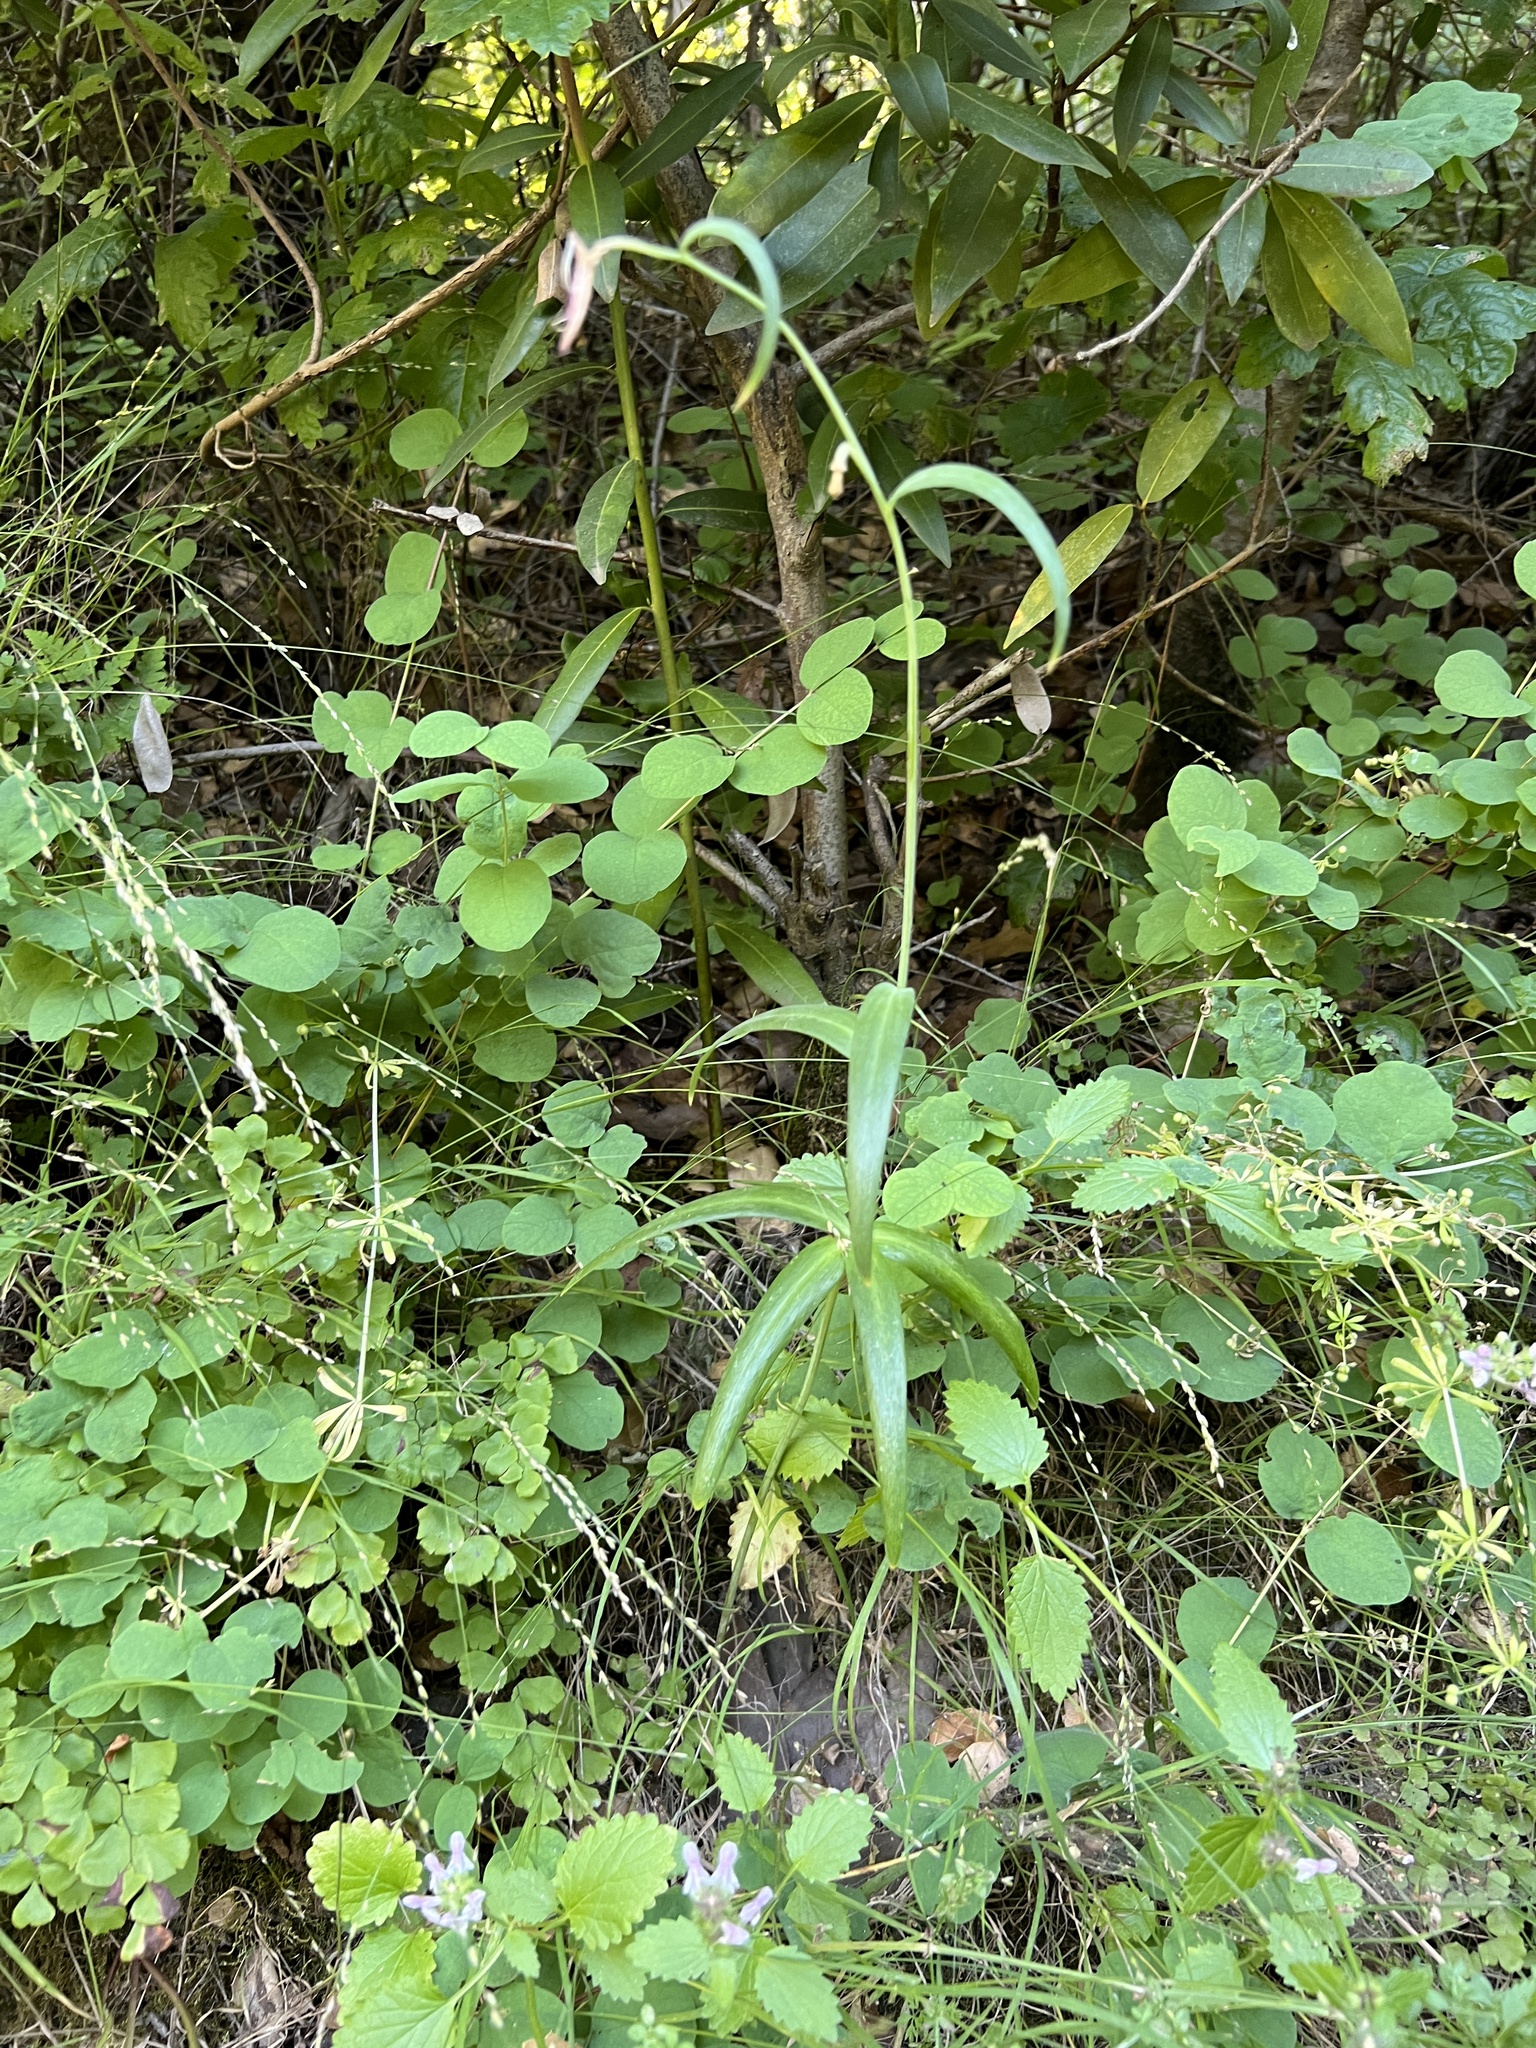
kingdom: Plantae
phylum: Tracheophyta
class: Liliopsida
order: Liliales
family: Liliaceae
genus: Fritillaria
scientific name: Fritillaria affinis
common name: Ojai fritillary
